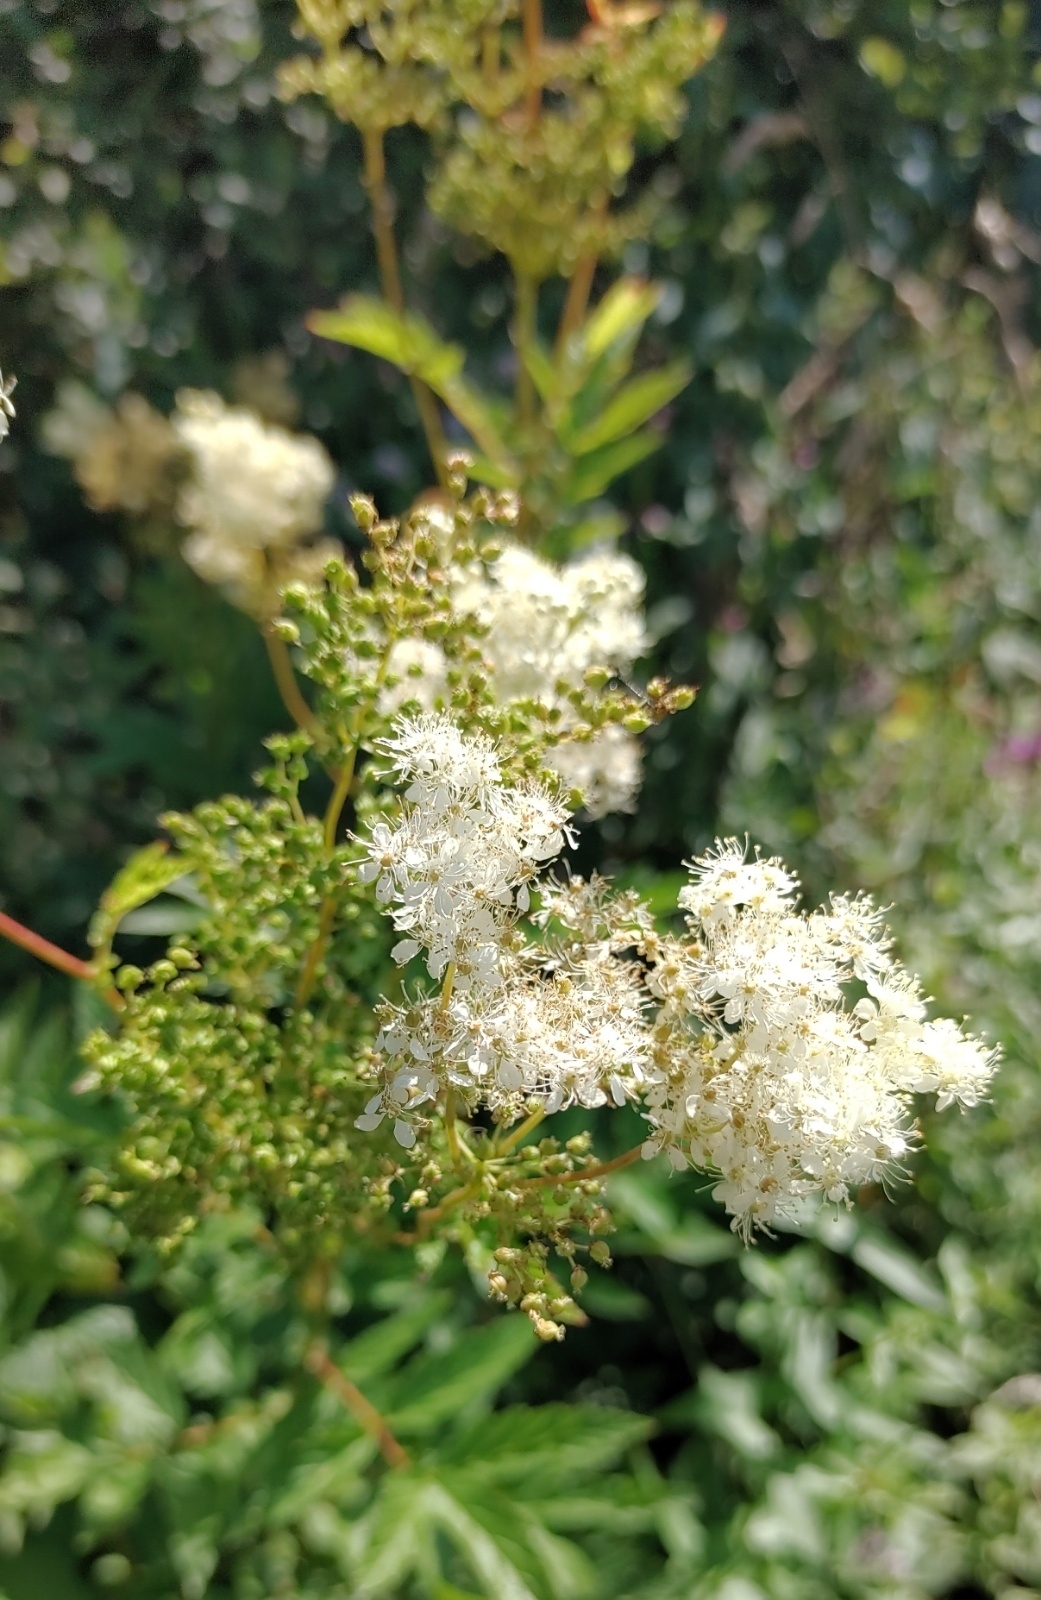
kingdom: Plantae
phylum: Tracheophyta
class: Magnoliopsida
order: Rosales
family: Rosaceae
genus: Filipendula
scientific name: Filipendula ulmaria
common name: Meadowsweet
